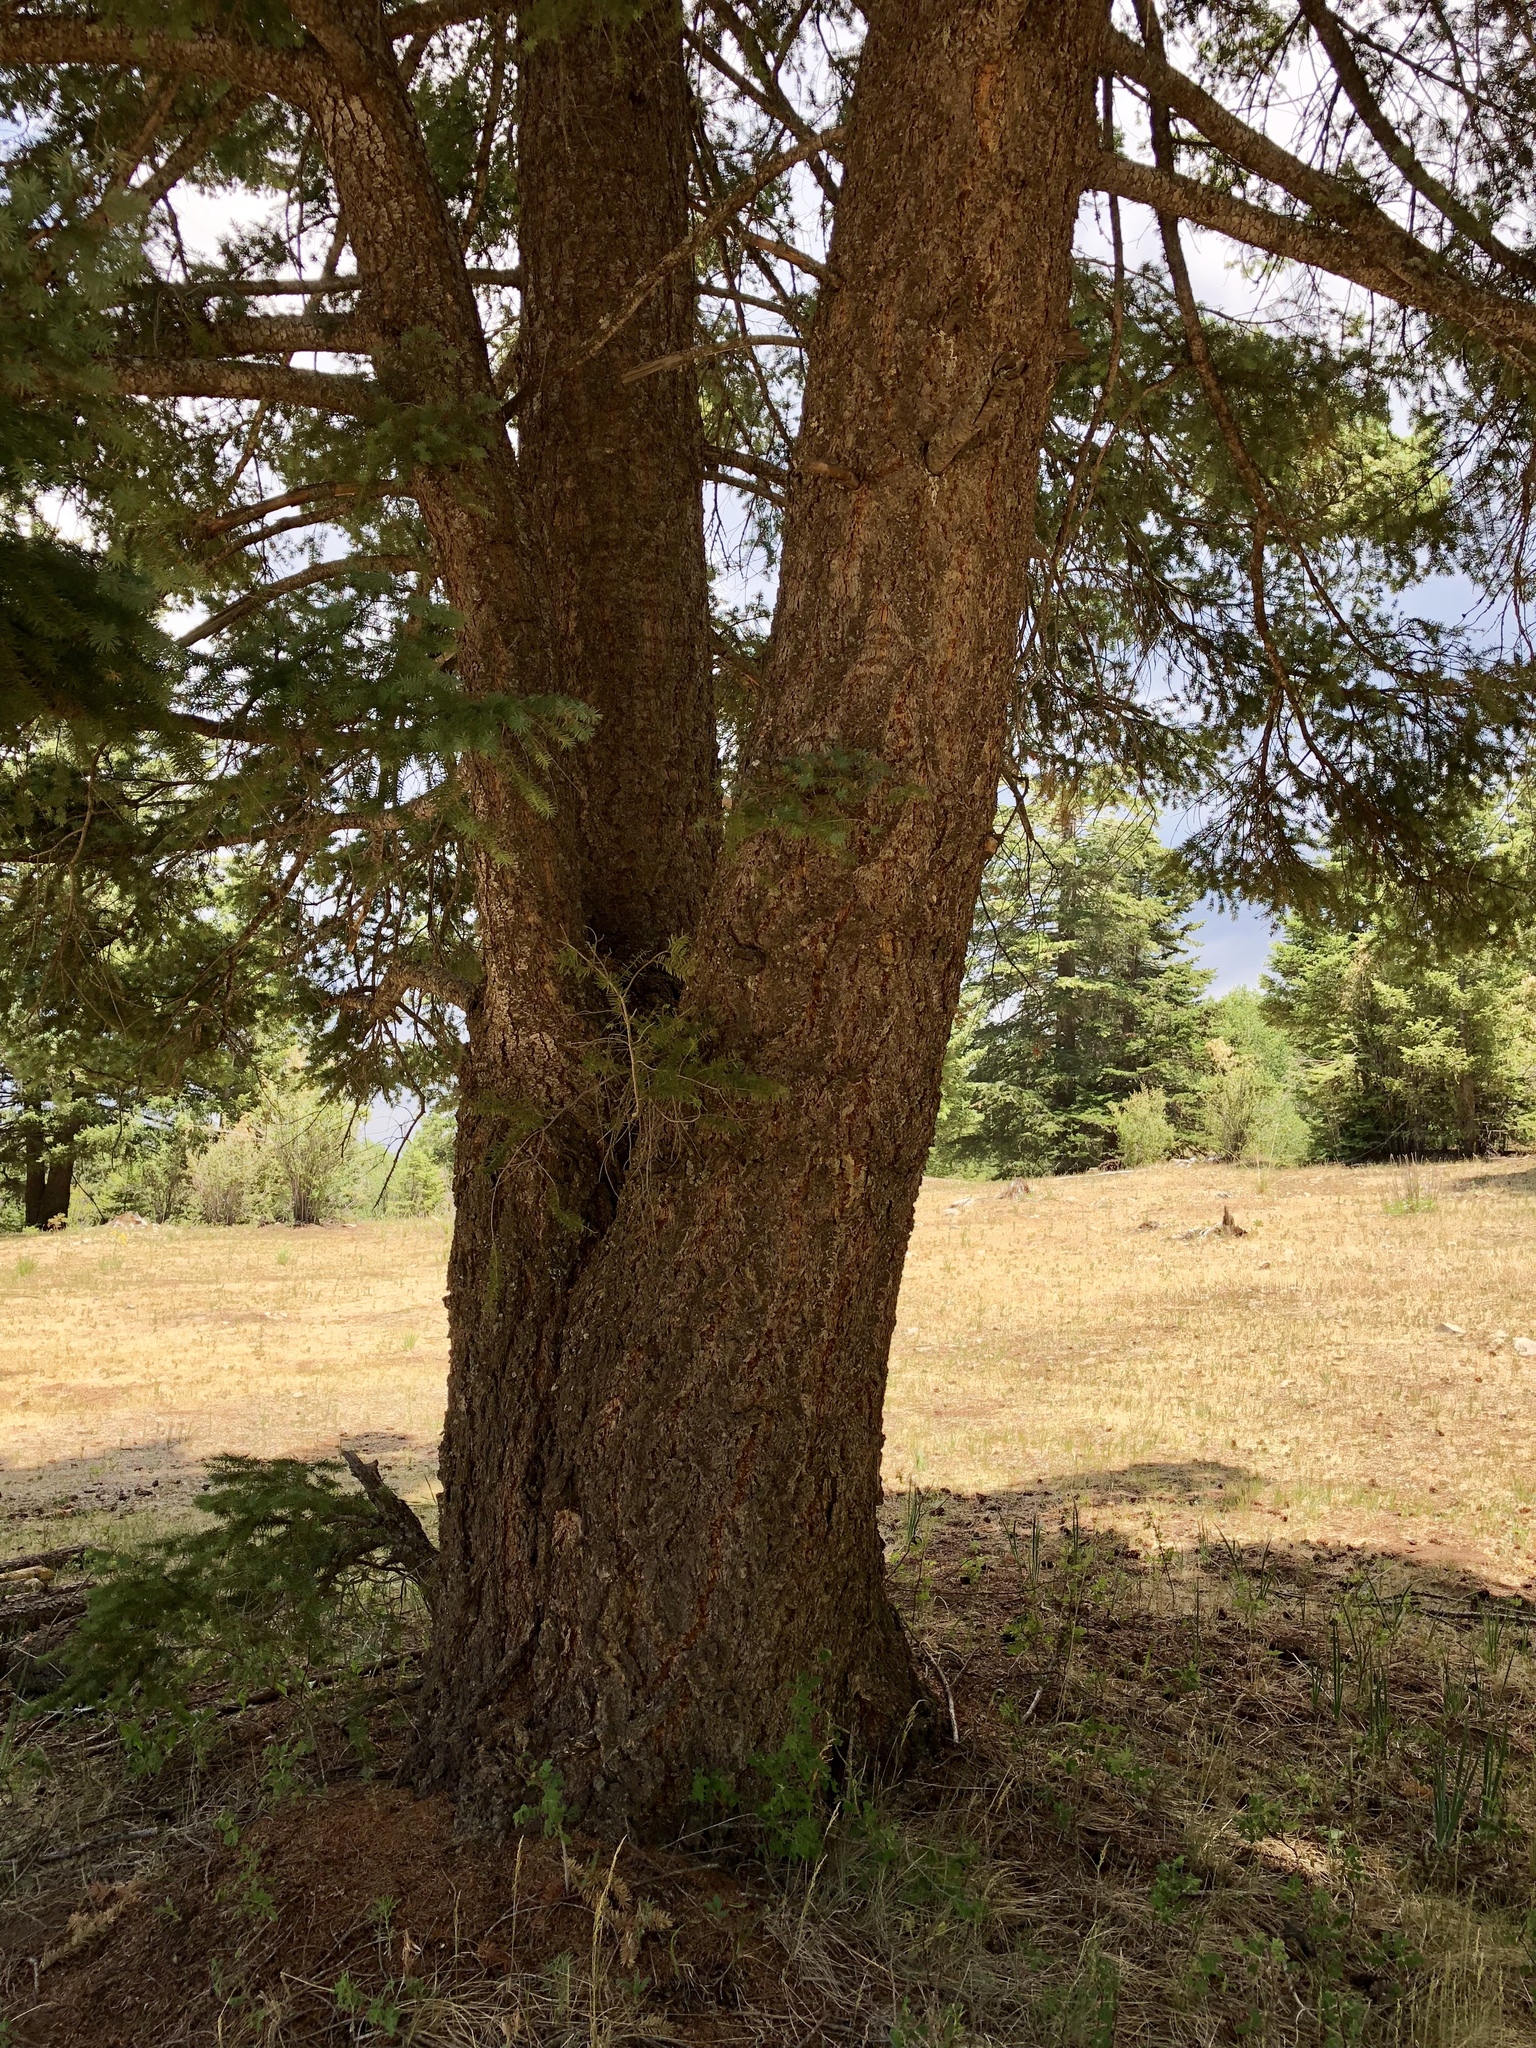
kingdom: Plantae
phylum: Tracheophyta
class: Pinopsida
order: Pinales
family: Pinaceae
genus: Pseudotsuga
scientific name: Pseudotsuga menziesii
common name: Douglas fir
